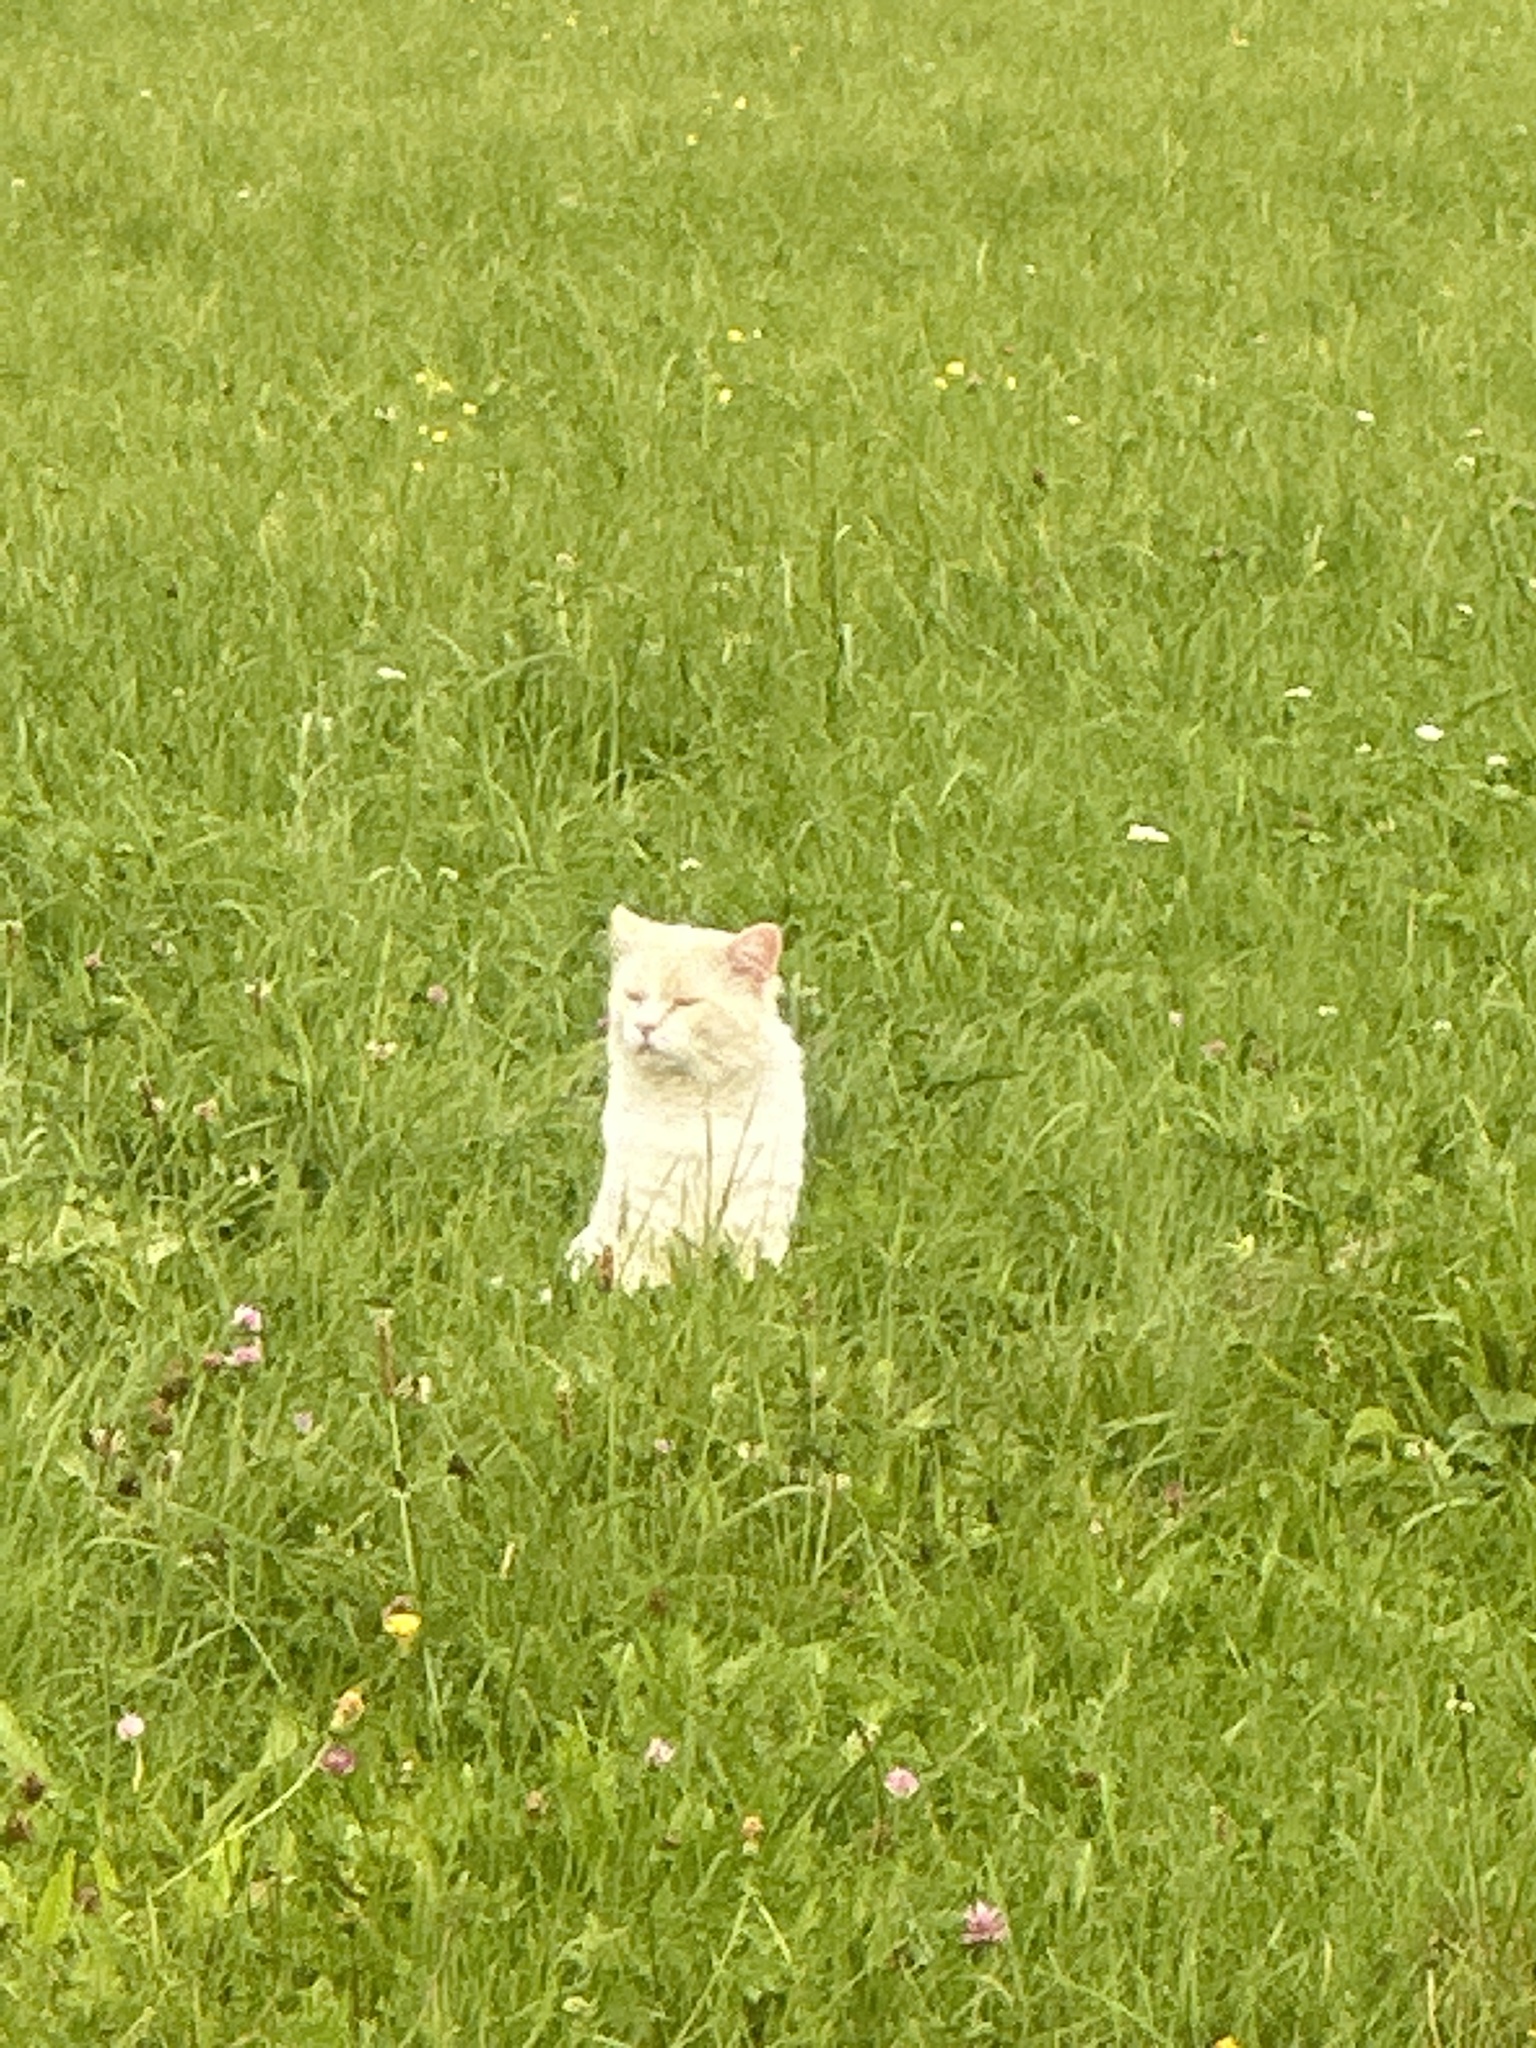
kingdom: Animalia
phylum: Chordata
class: Mammalia
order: Carnivora
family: Felidae
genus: Felis
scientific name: Felis catus
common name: Domestic cat
